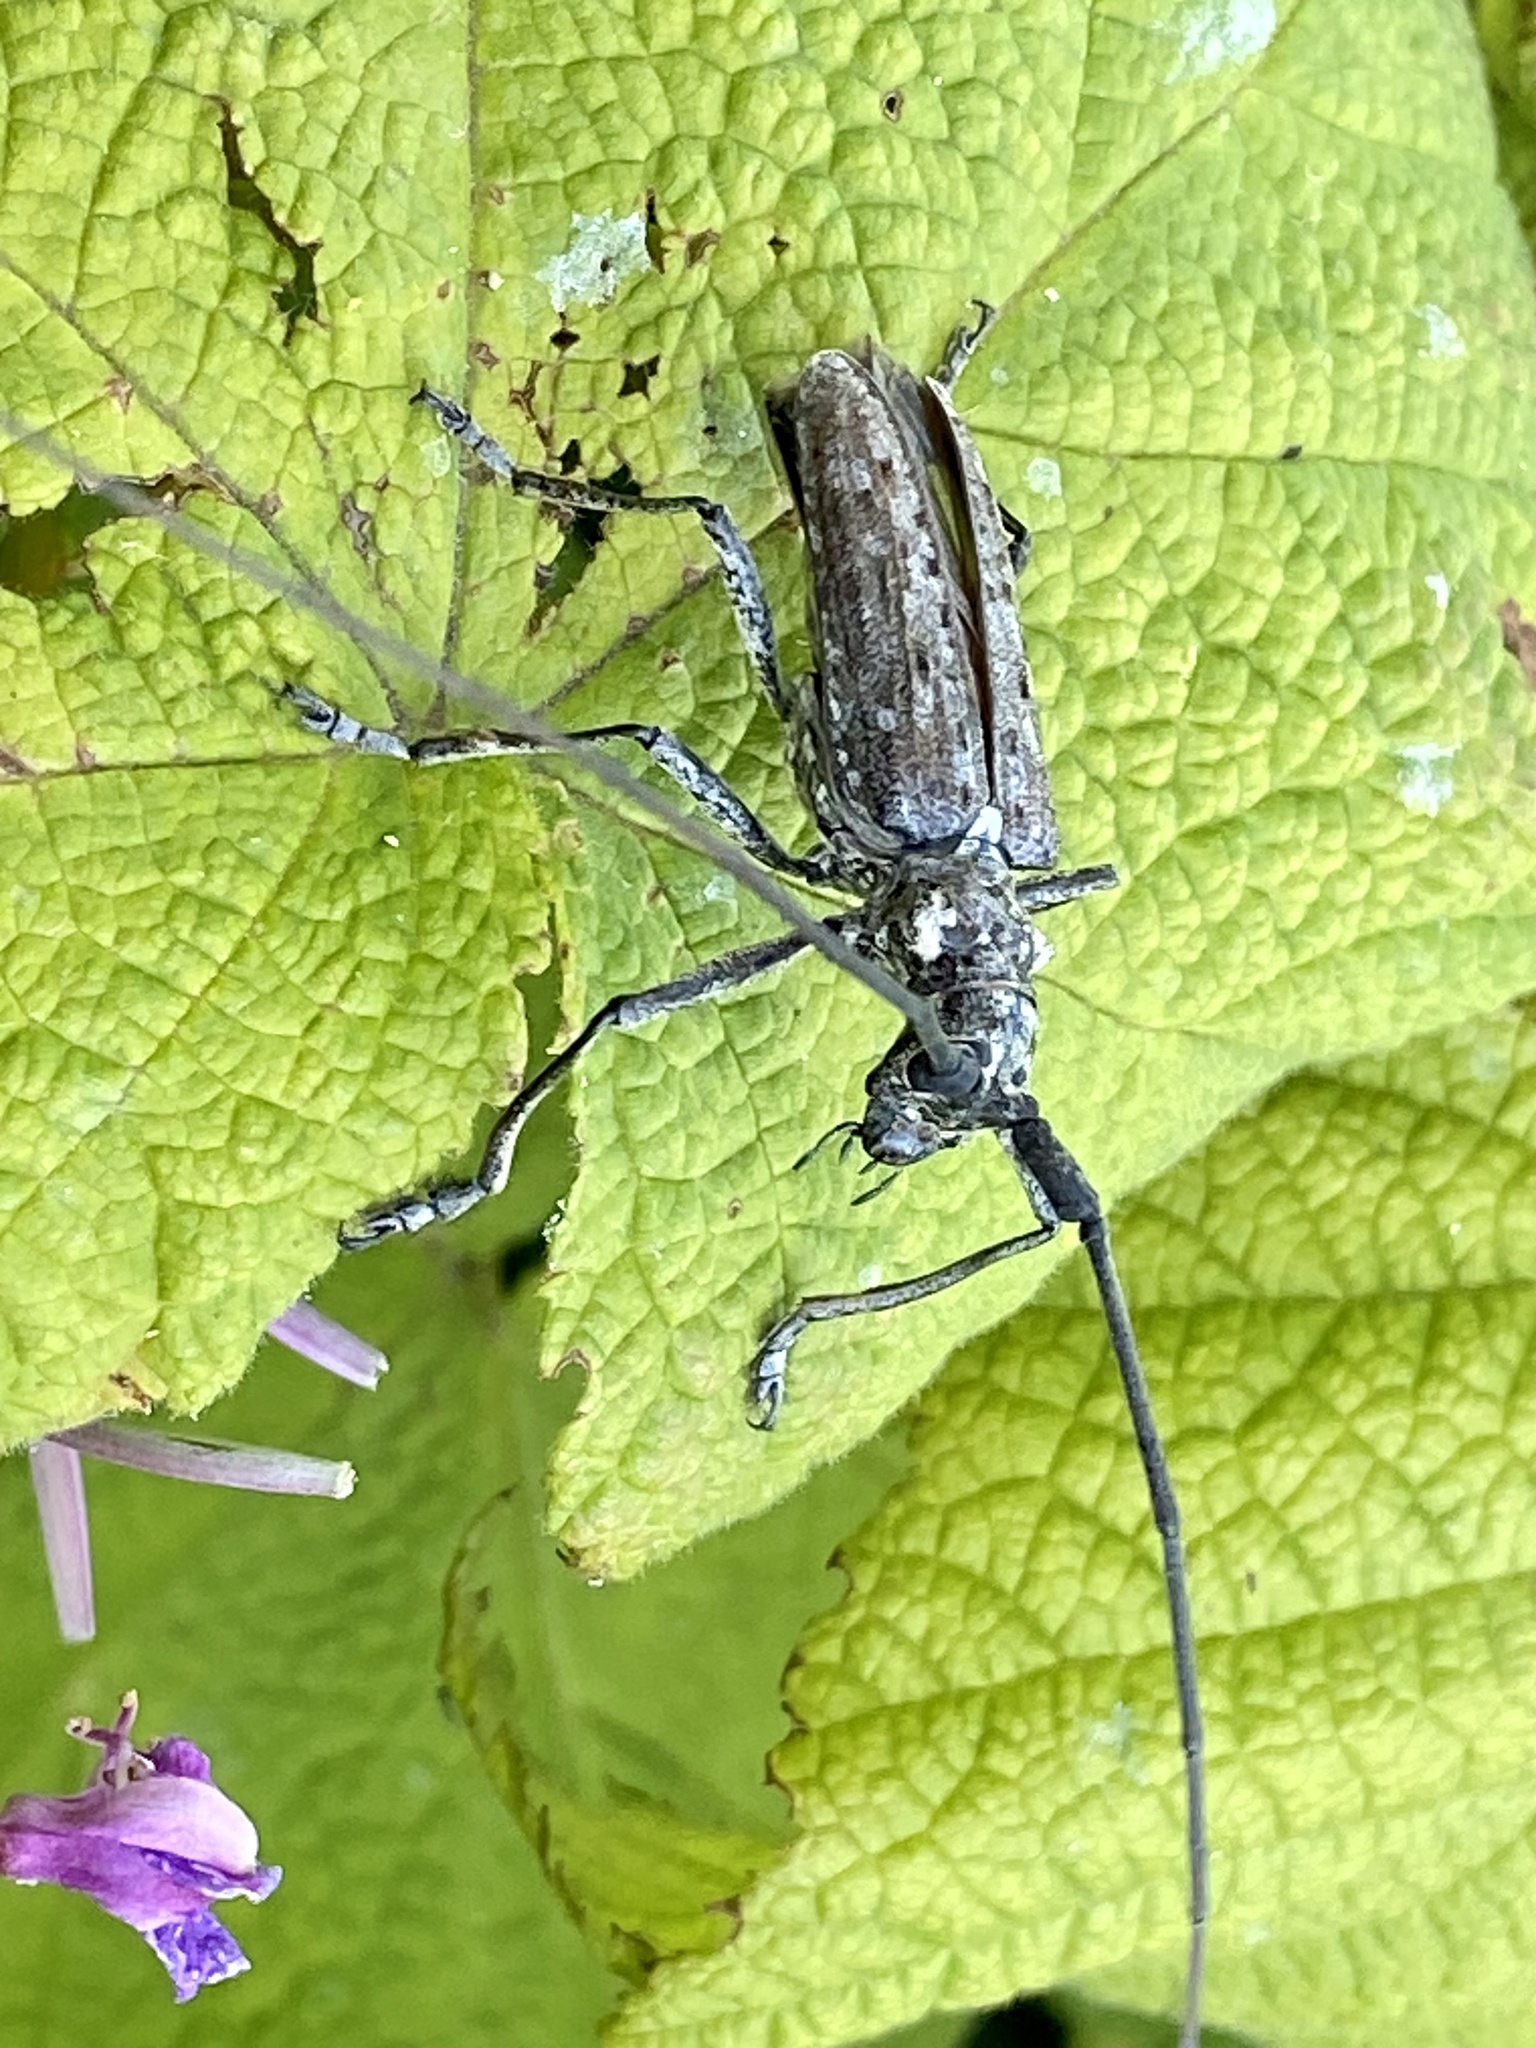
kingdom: Animalia
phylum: Arthropoda
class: Insecta
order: Coleoptera
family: Cerambycidae
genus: Monochamus
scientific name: Monochamus notatus
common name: Northeastern pine sawyer beetle
